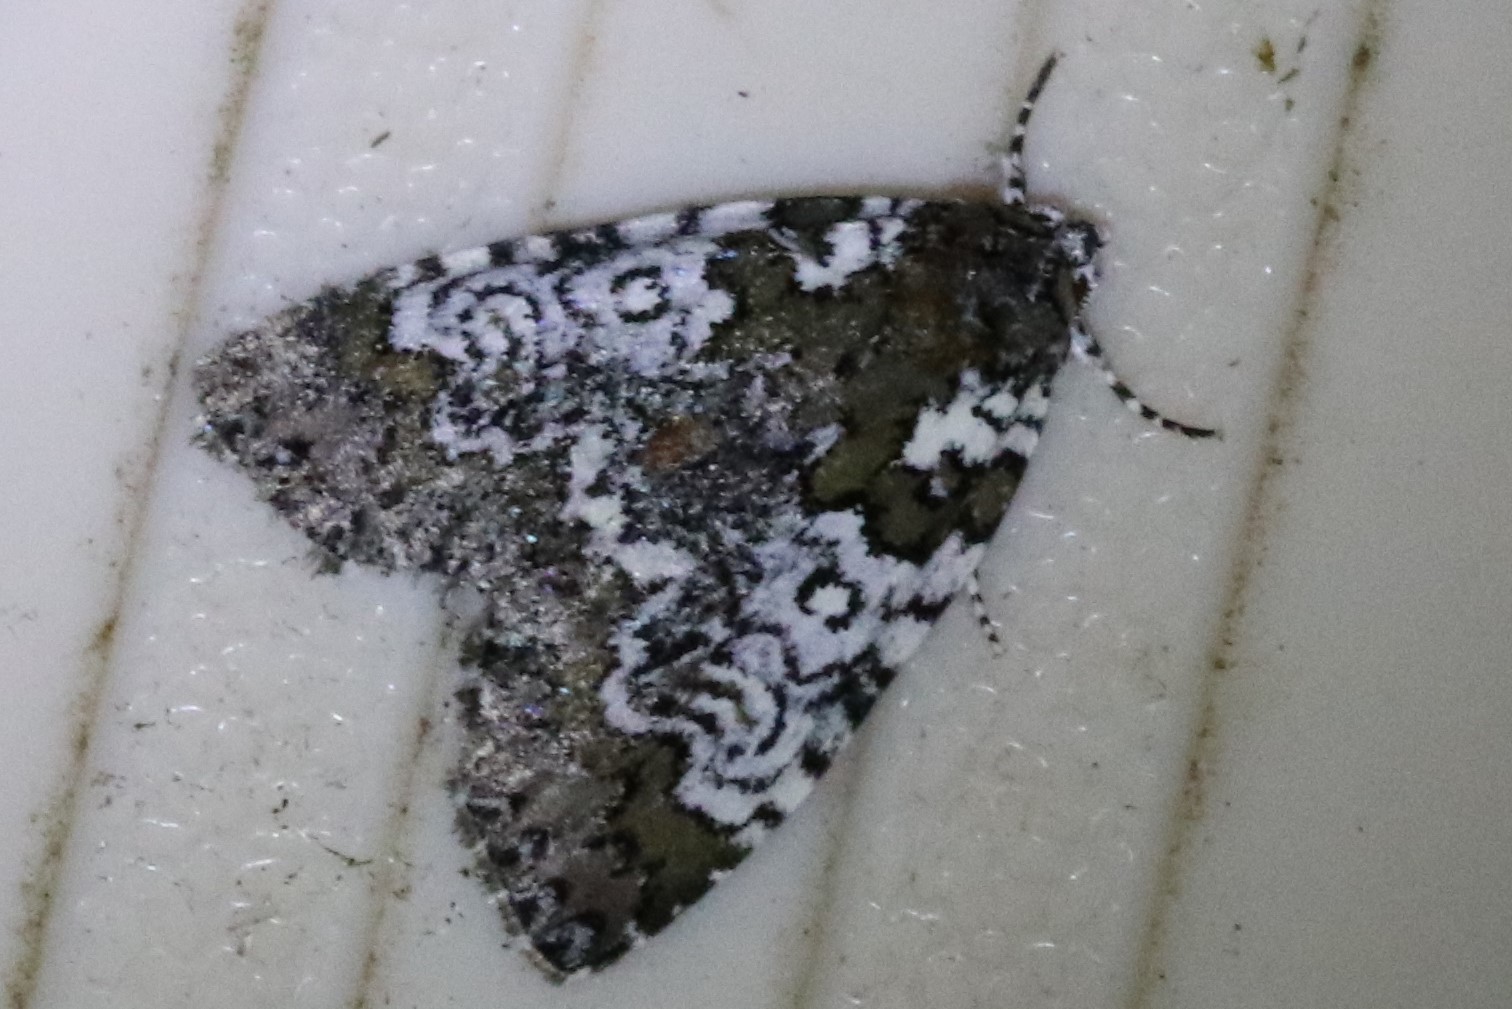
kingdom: Animalia
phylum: Arthropoda
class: Insecta
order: Lepidoptera
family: Noctuidae
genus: Cerma
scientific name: Cerma cora
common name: Bird dropping moth
